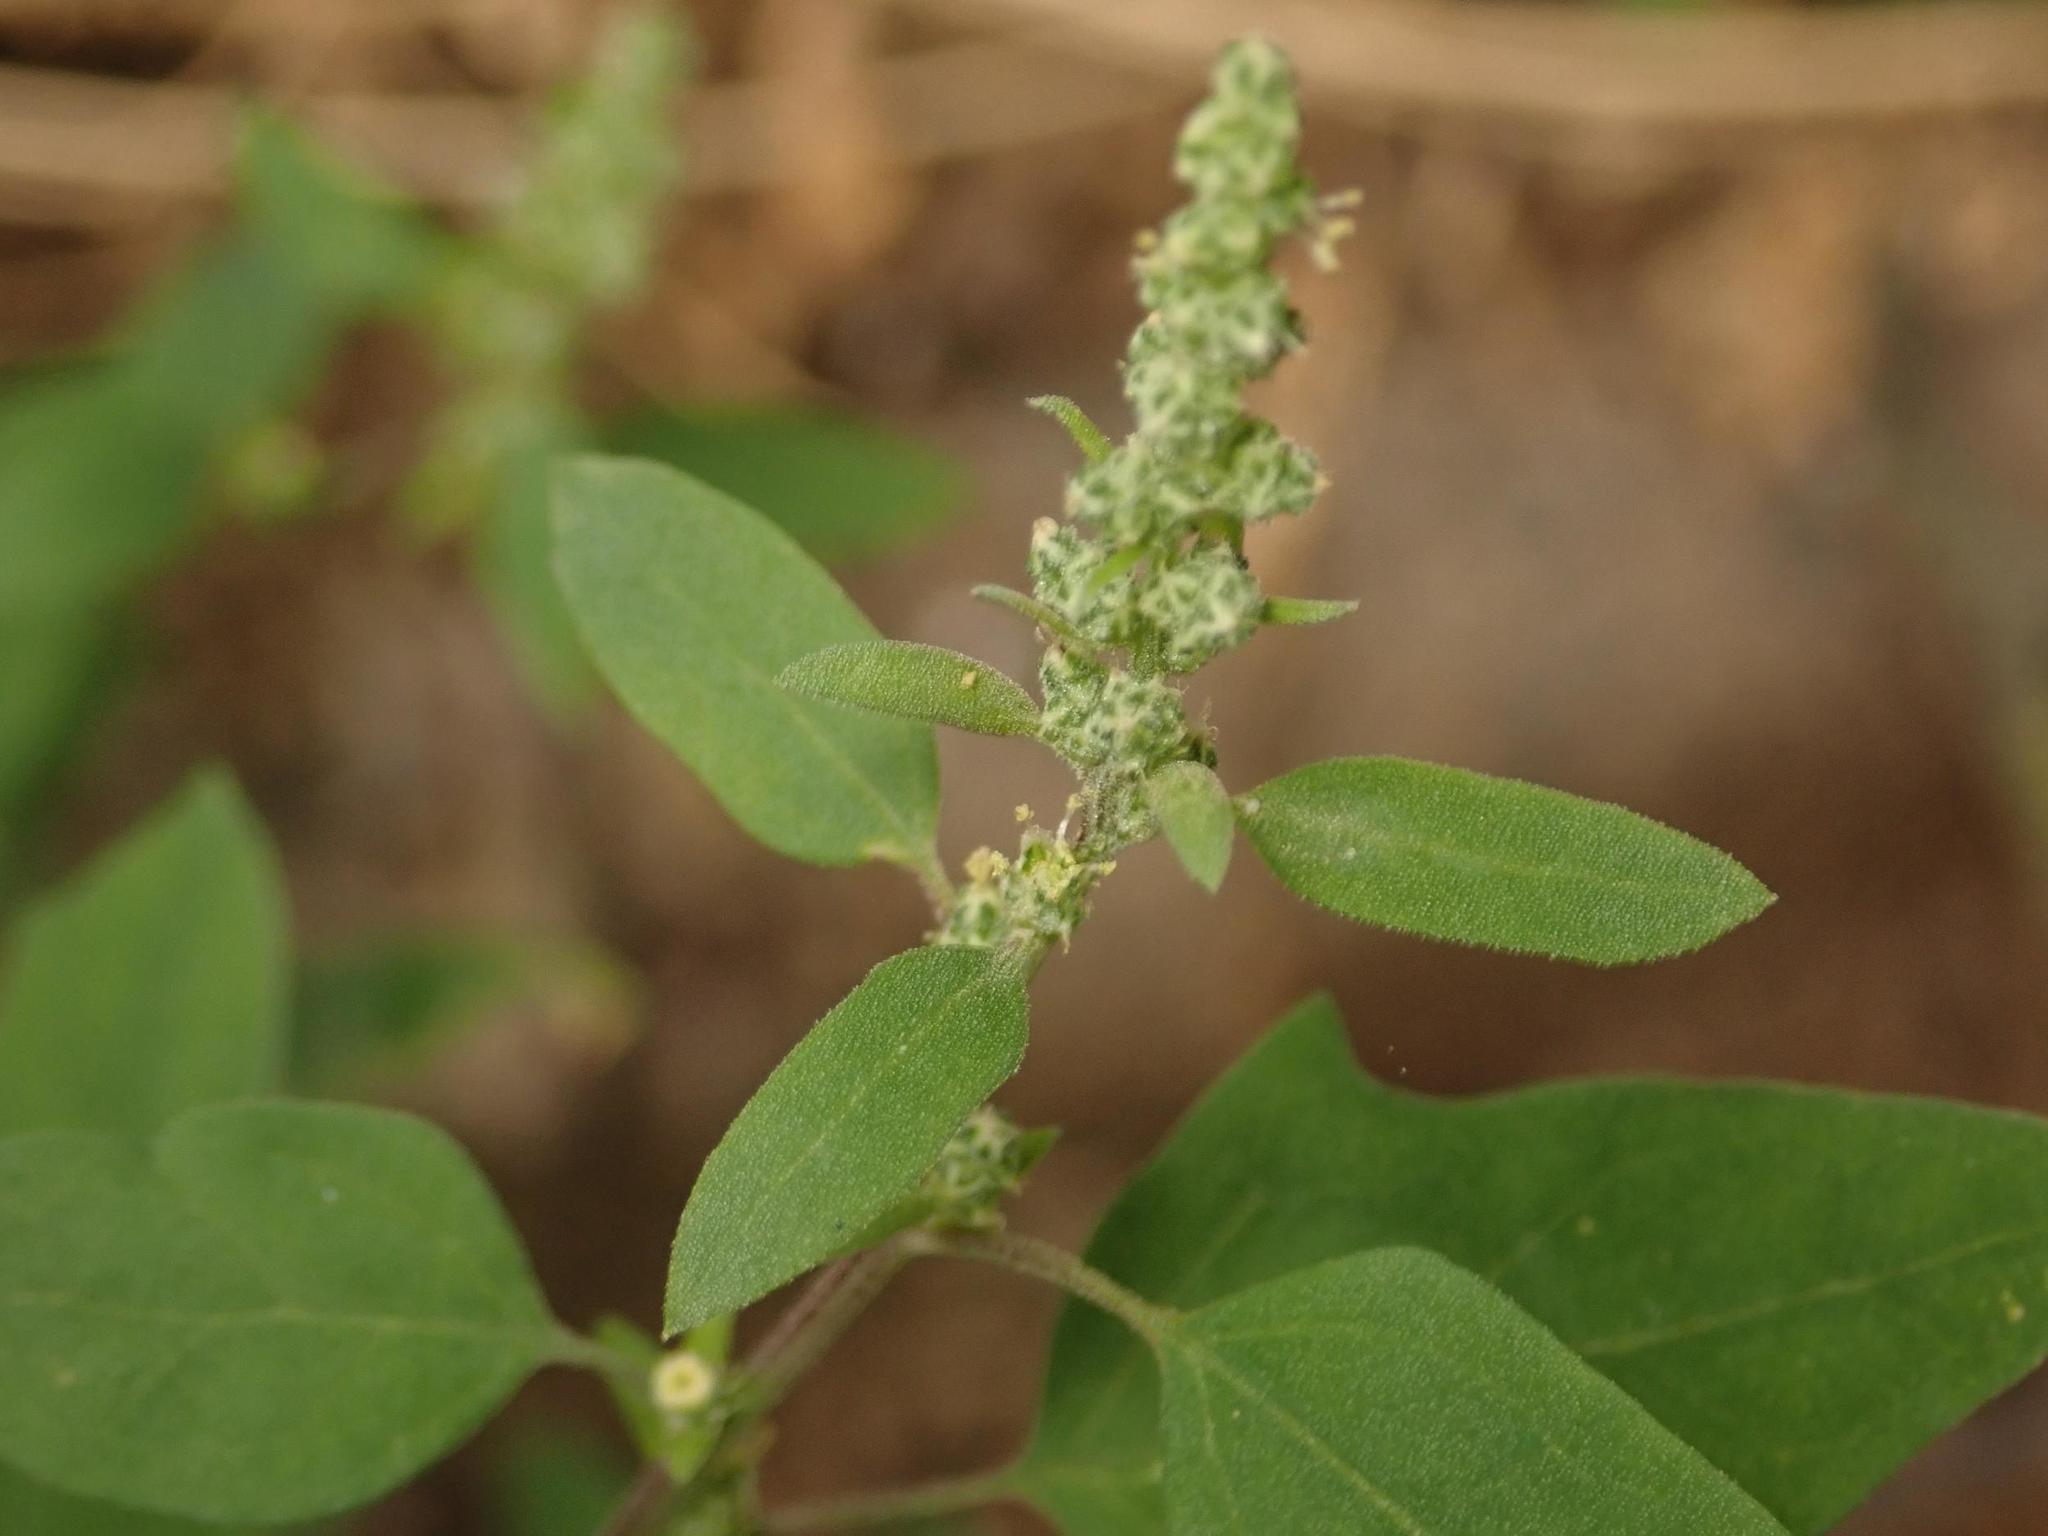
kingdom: Plantae
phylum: Tracheophyta
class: Magnoliopsida
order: Caryophyllales
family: Amaranthaceae
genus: Chenopodium
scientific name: Chenopodium album
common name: Fat-hen
